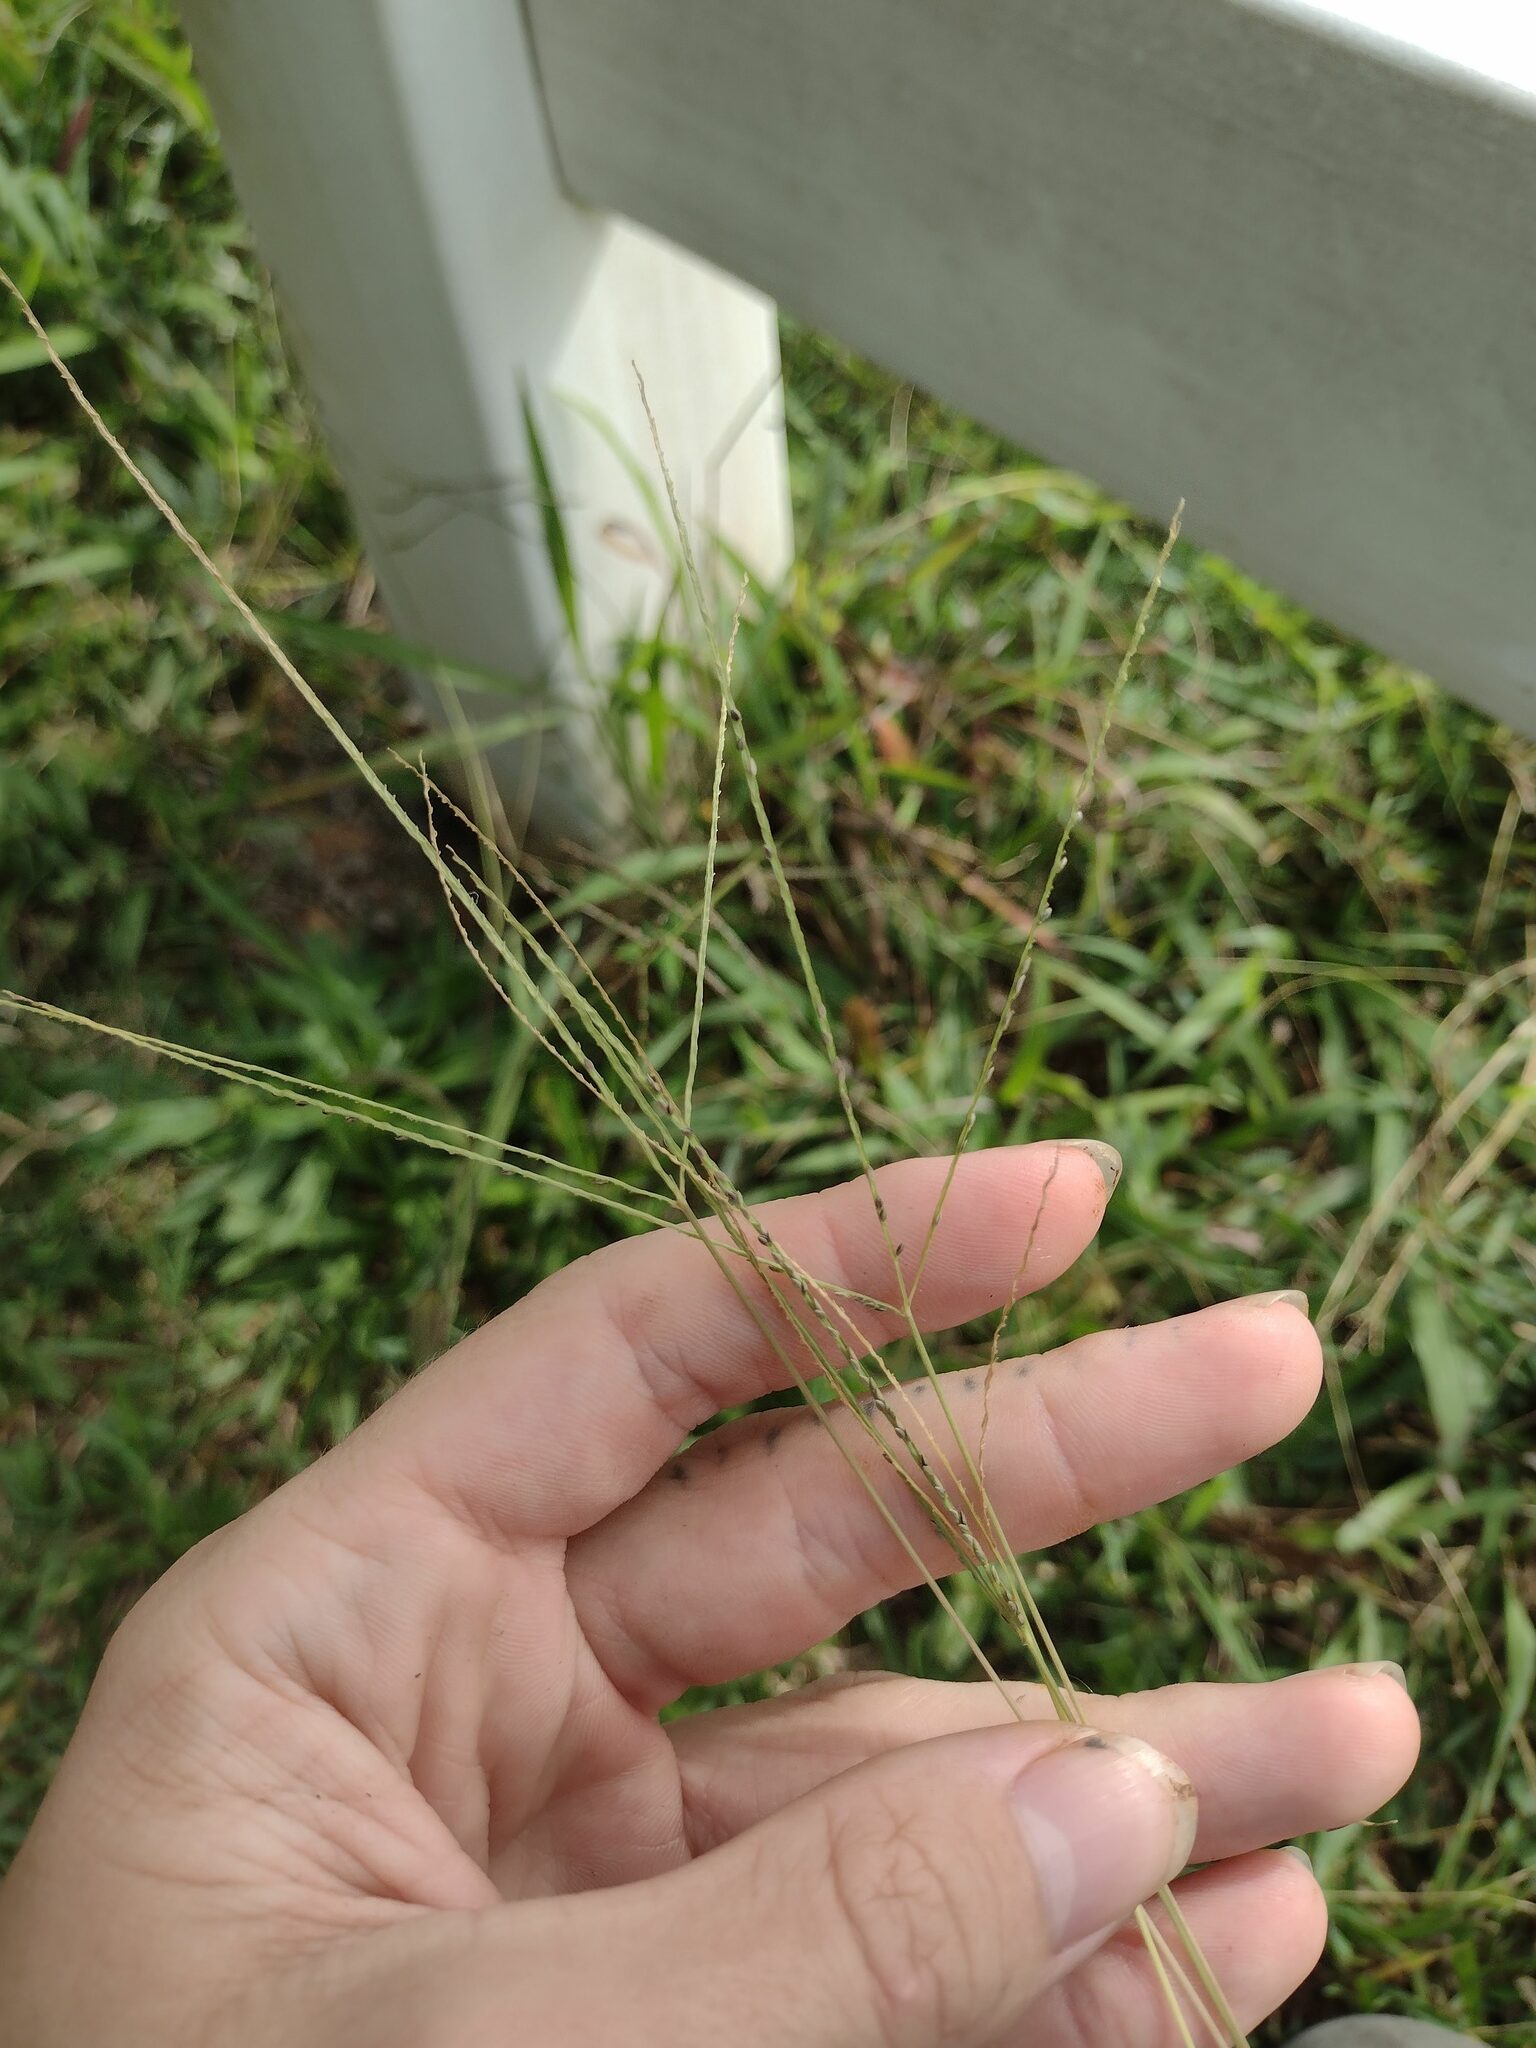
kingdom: Plantae
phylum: Tracheophyta
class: Liliopsida
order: Poales
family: Poaceae
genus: Digitaria
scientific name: Digitaria violascens
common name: Violet crabgrass
